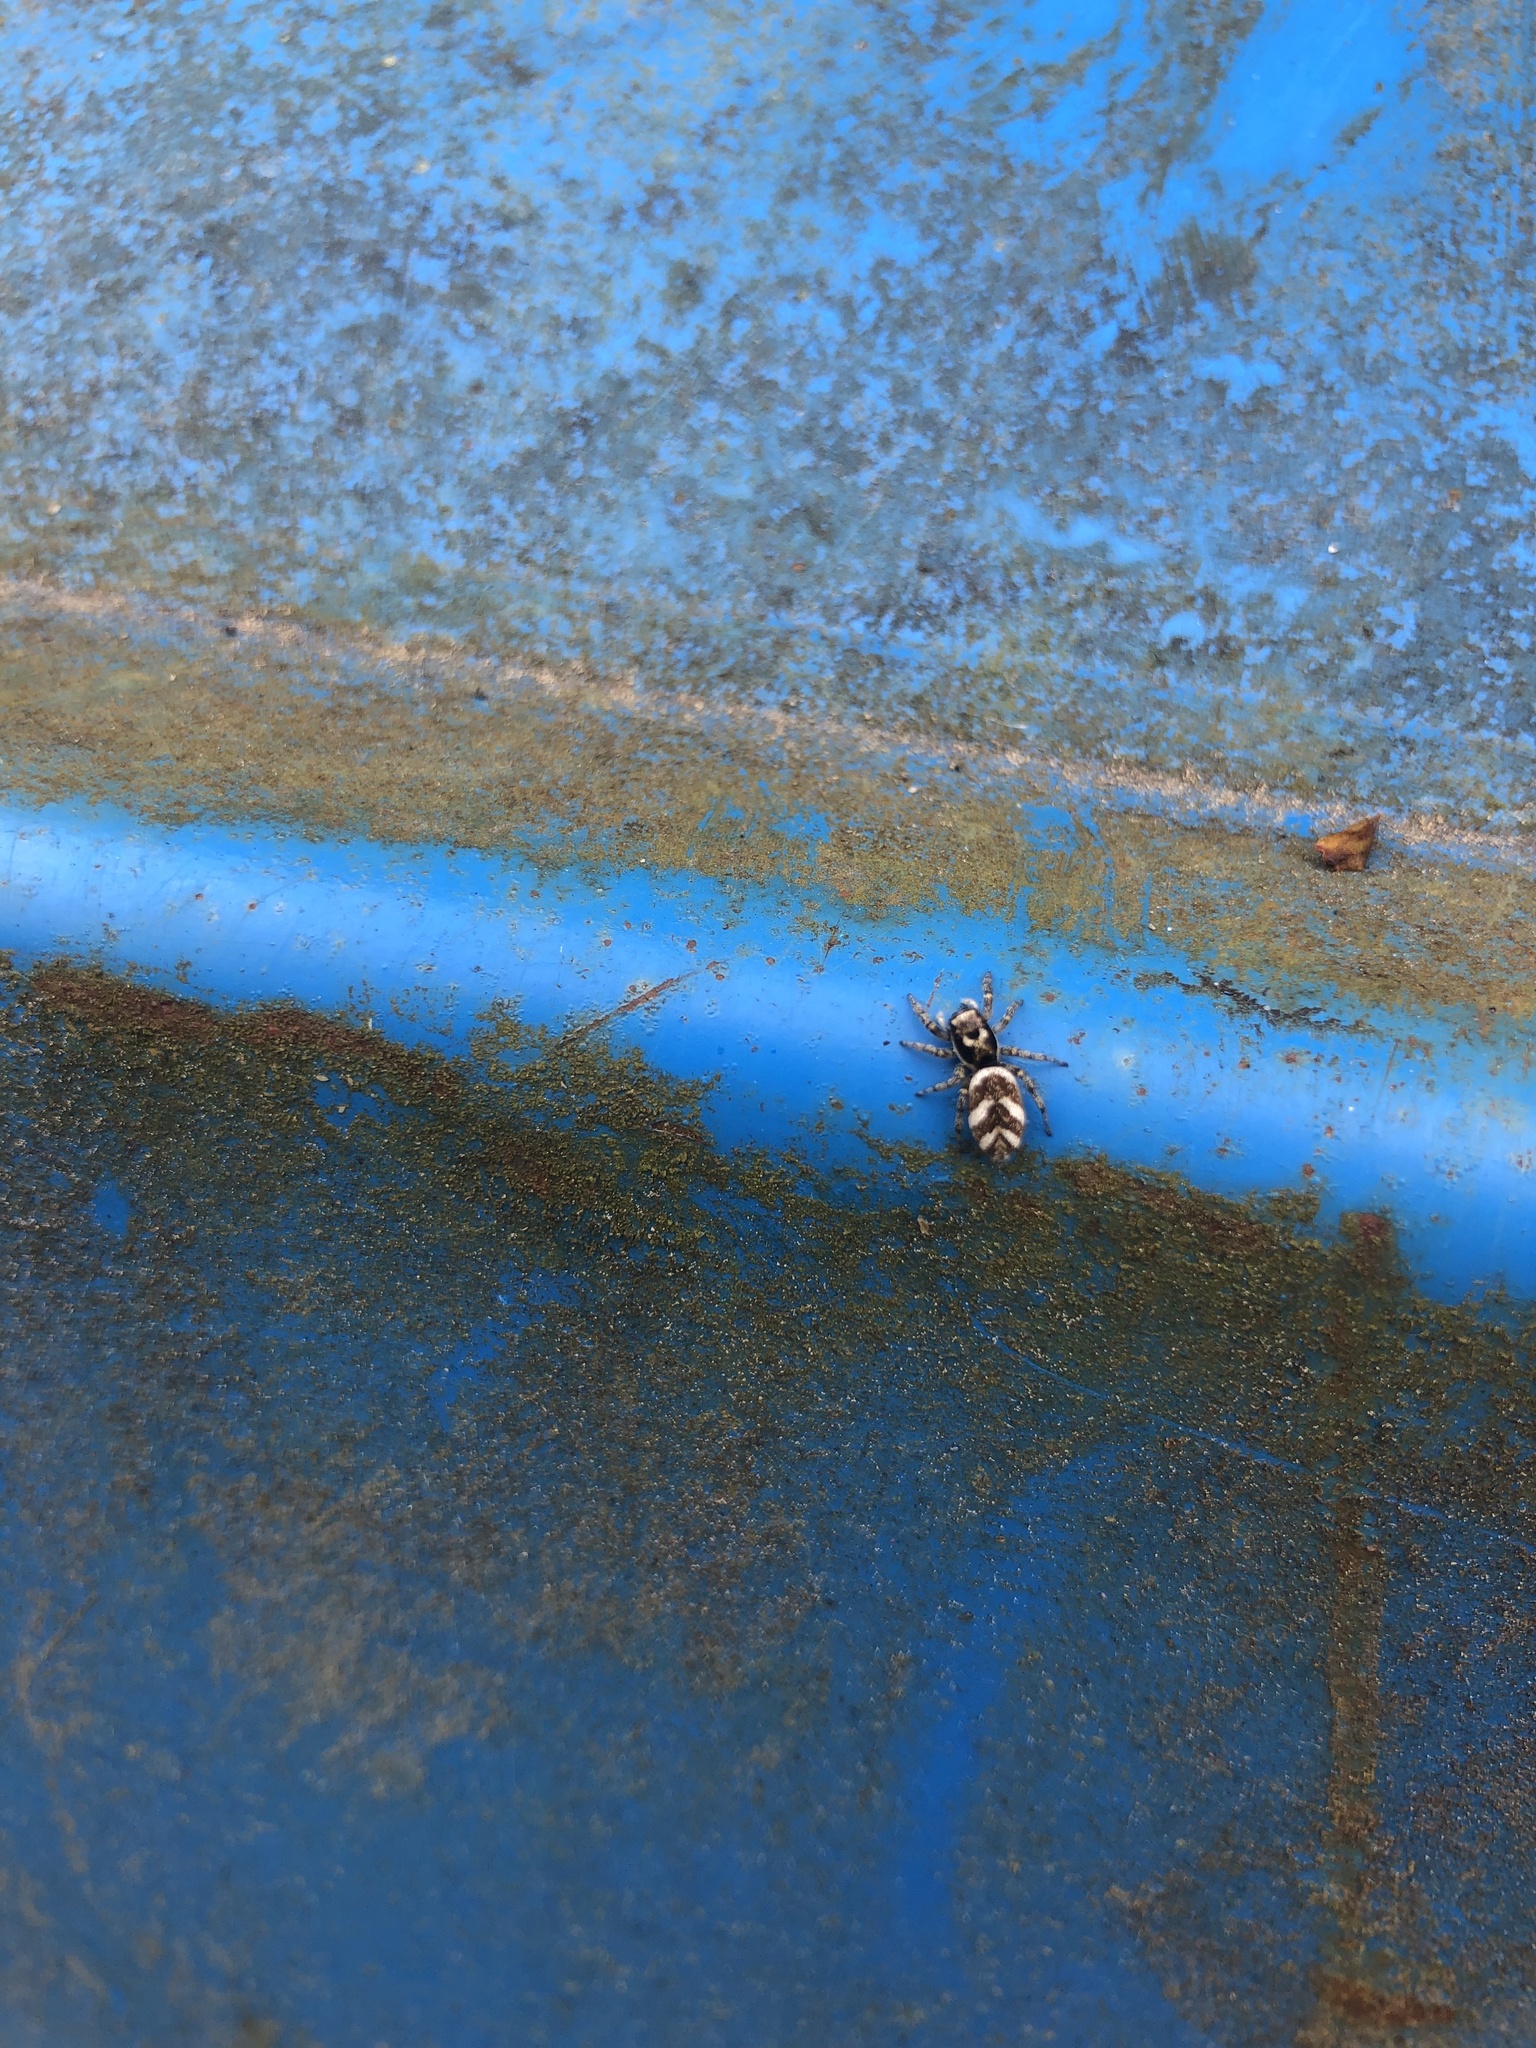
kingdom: Animalia
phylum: Arthropoda
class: Arachnida
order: Araneae
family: Salticidae
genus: Salticus
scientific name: Salticus scenicus
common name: Zebra jumper
